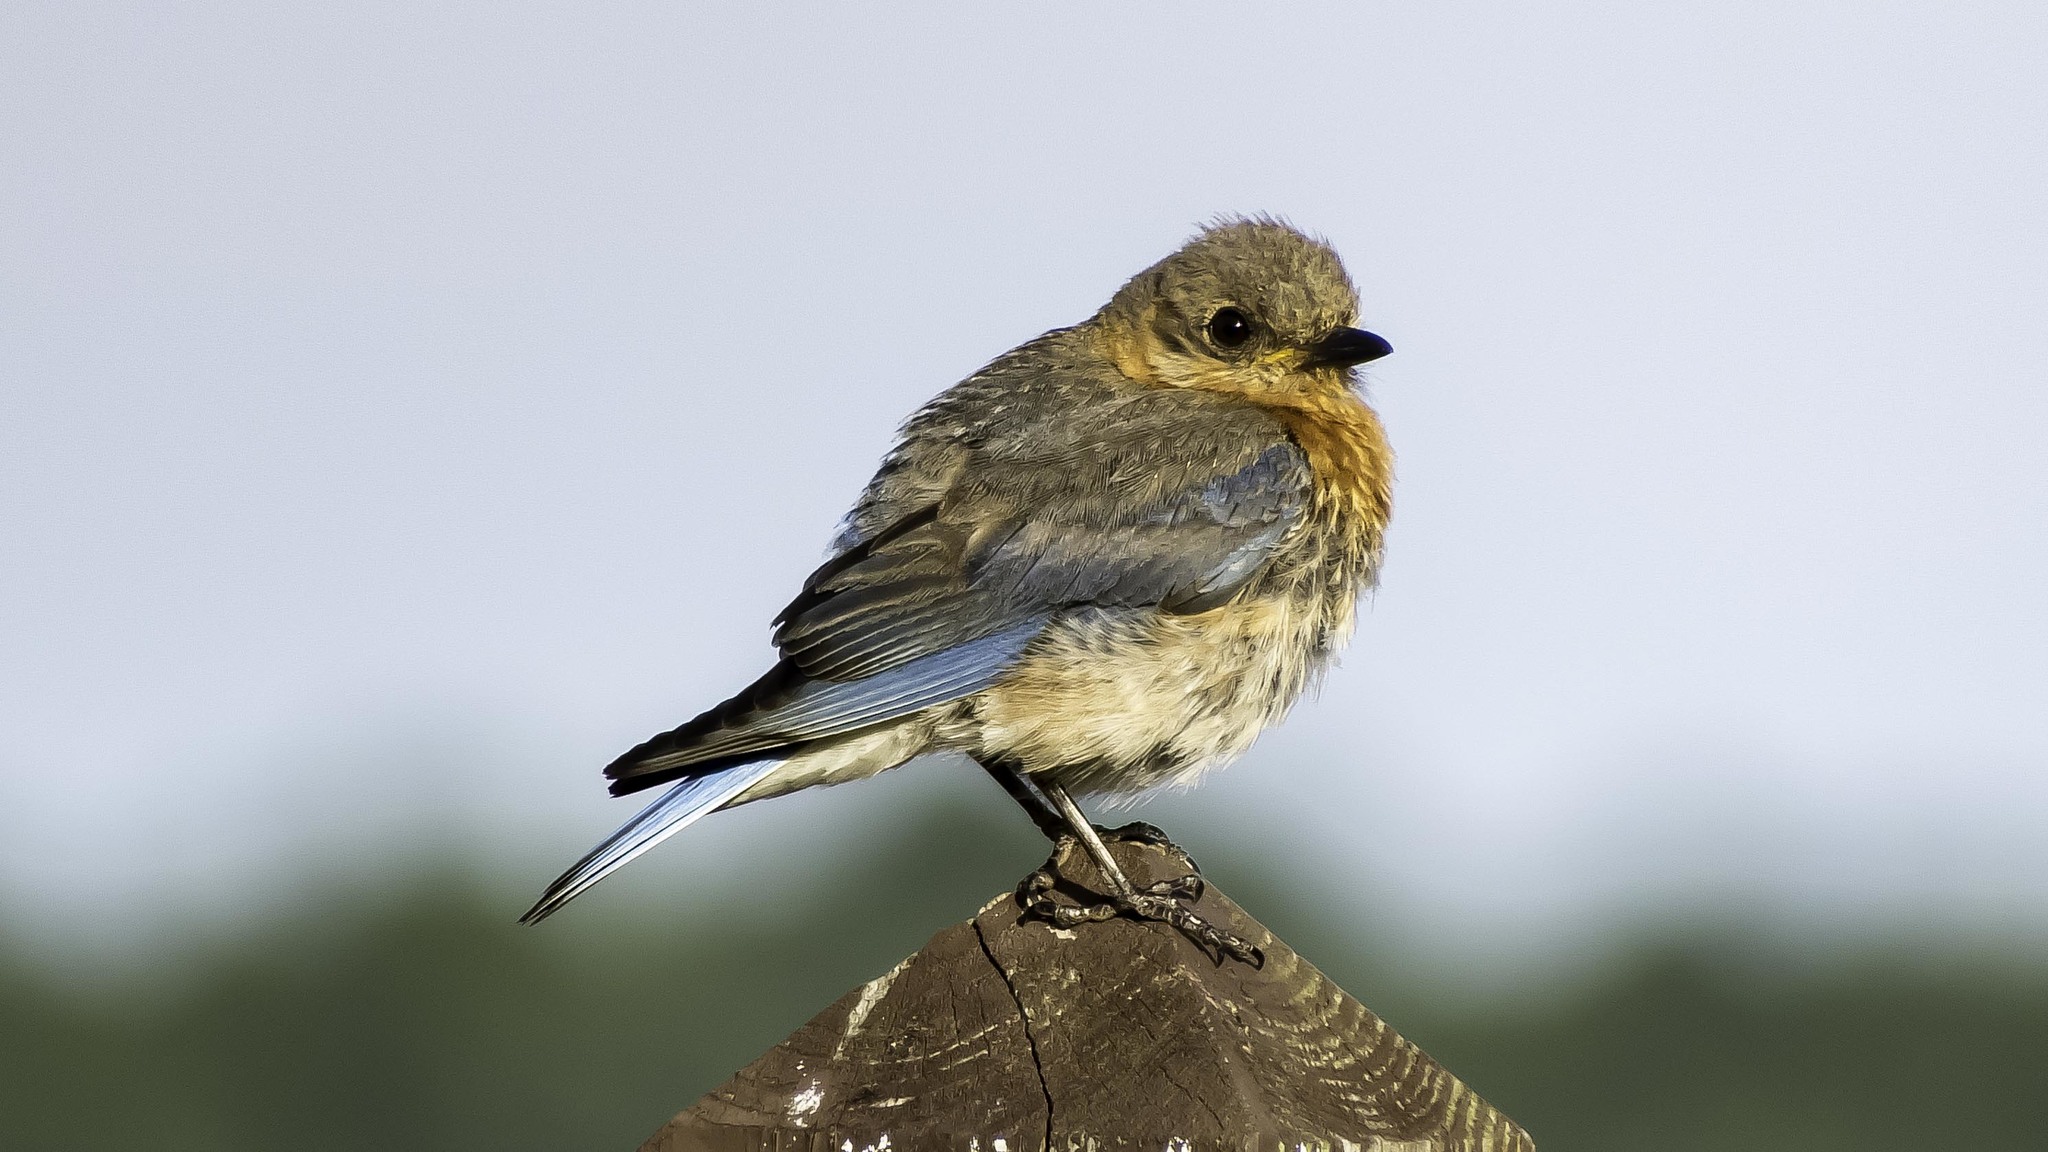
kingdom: Animalia
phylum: Chordata
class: Aves
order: Passeriformes
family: Turdidae
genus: Sialia
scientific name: Sialia sialis
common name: Eastern bluebird
